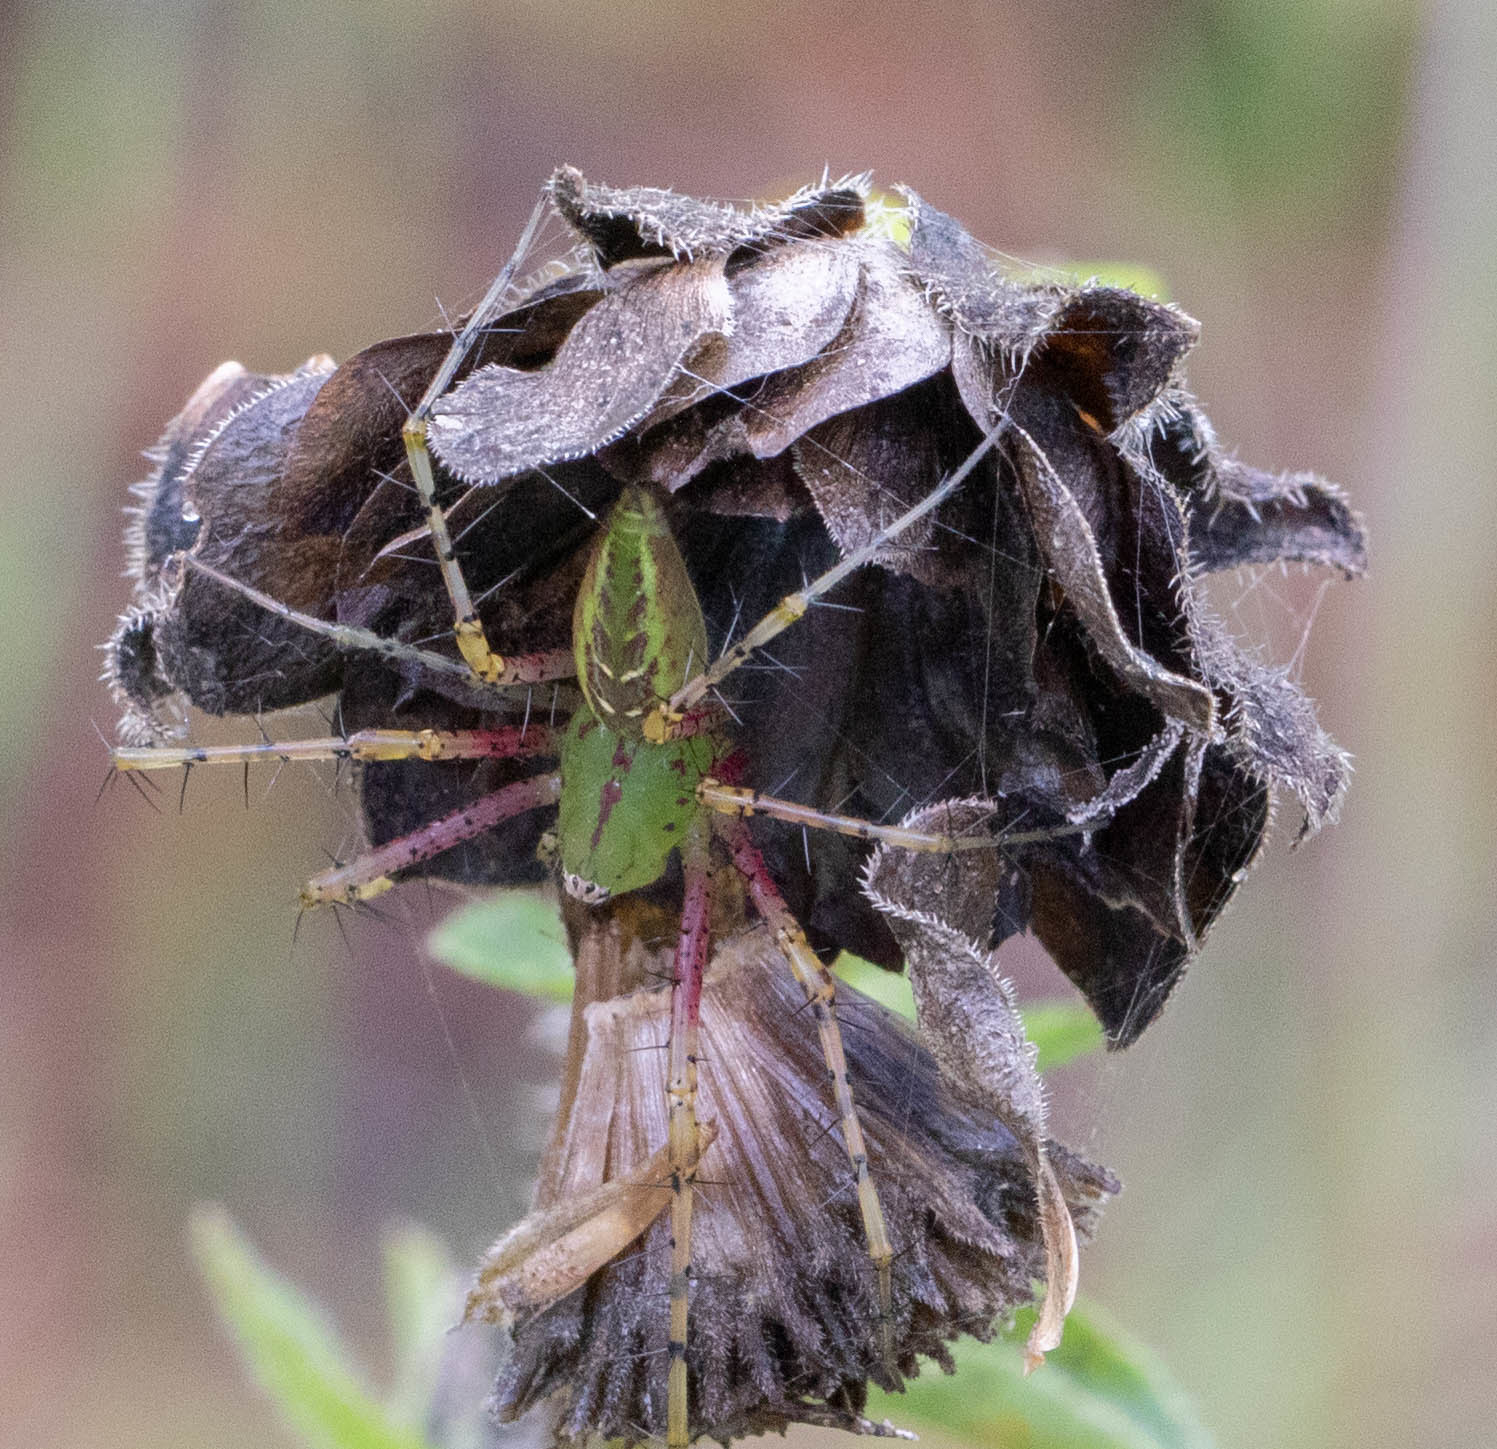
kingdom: Animalia
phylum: Arthropoda
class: Arachnida
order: Araneae
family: Oxyopidae
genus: Peucetia
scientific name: Peucetia viridans
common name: Lynx spiders
